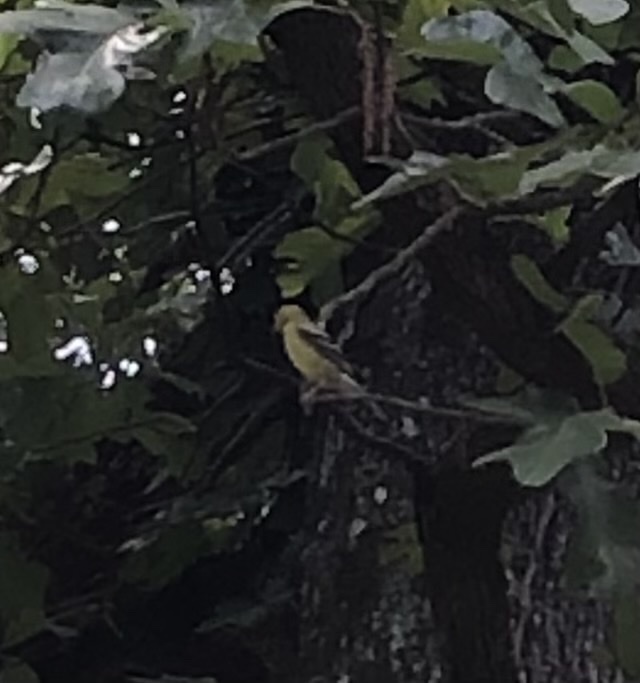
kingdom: Animalia
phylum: Chordata
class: Aves
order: Passeriformes
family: Fringillidae
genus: Spinus
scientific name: Spinus tristis
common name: American goldfinch
